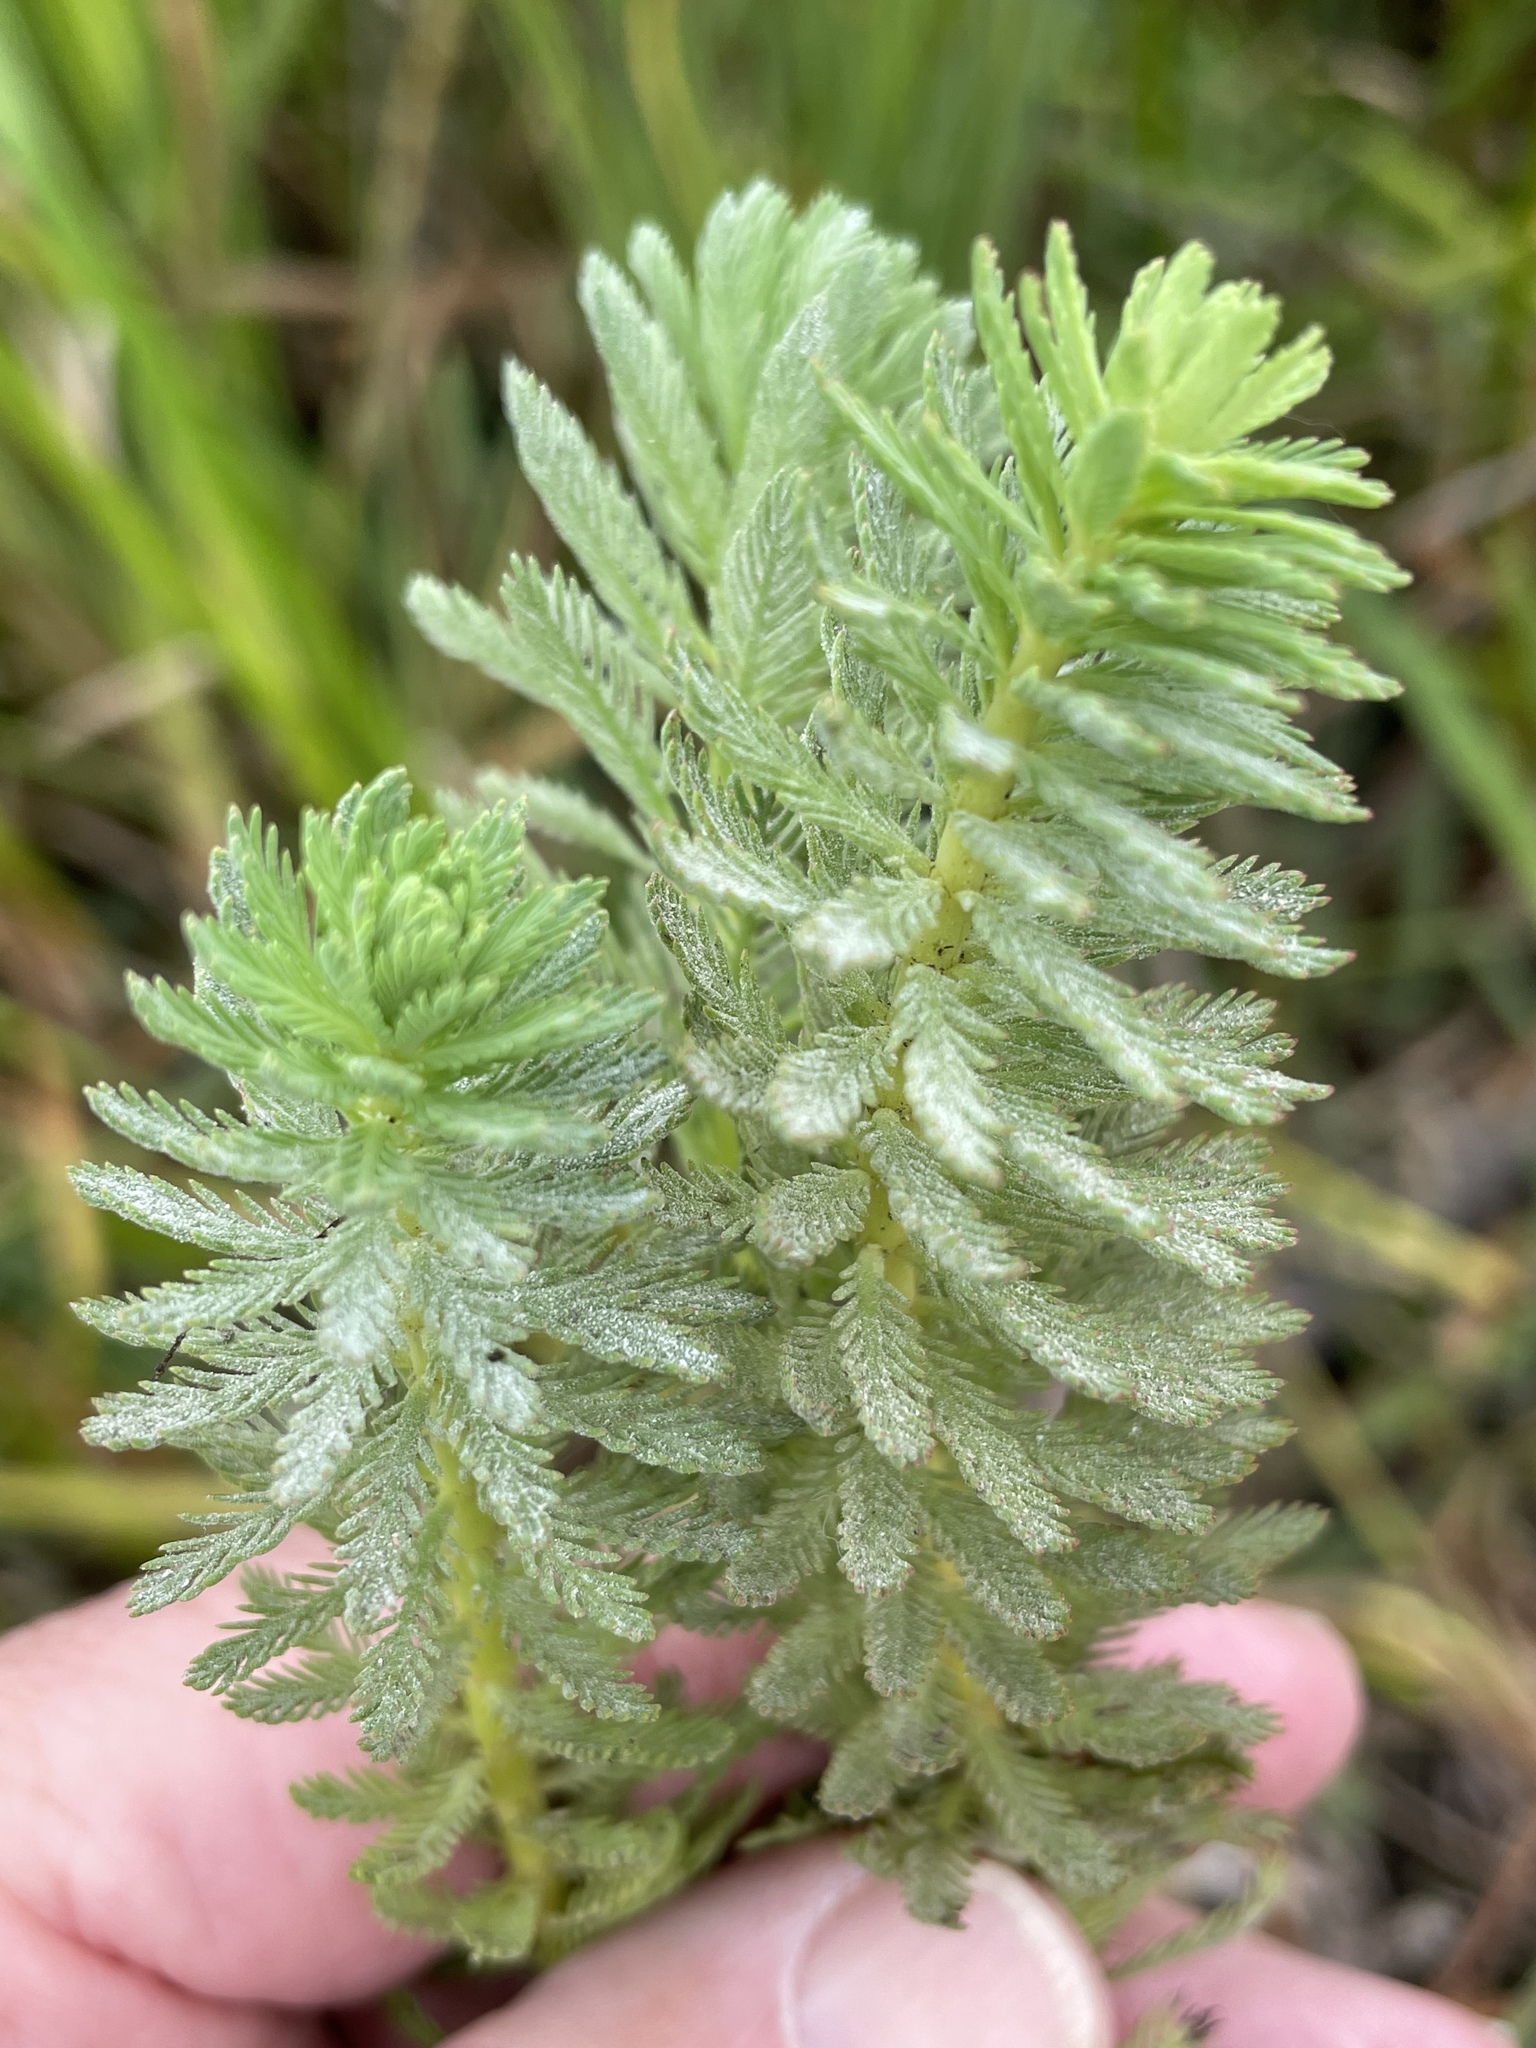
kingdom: Plantae
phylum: Tracheophyta
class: Magnoliopsida
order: Saxifragales
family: Haloragaceae
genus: Myriophyllum
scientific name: Myriophyllum aquaticum
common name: Parrot's feather
